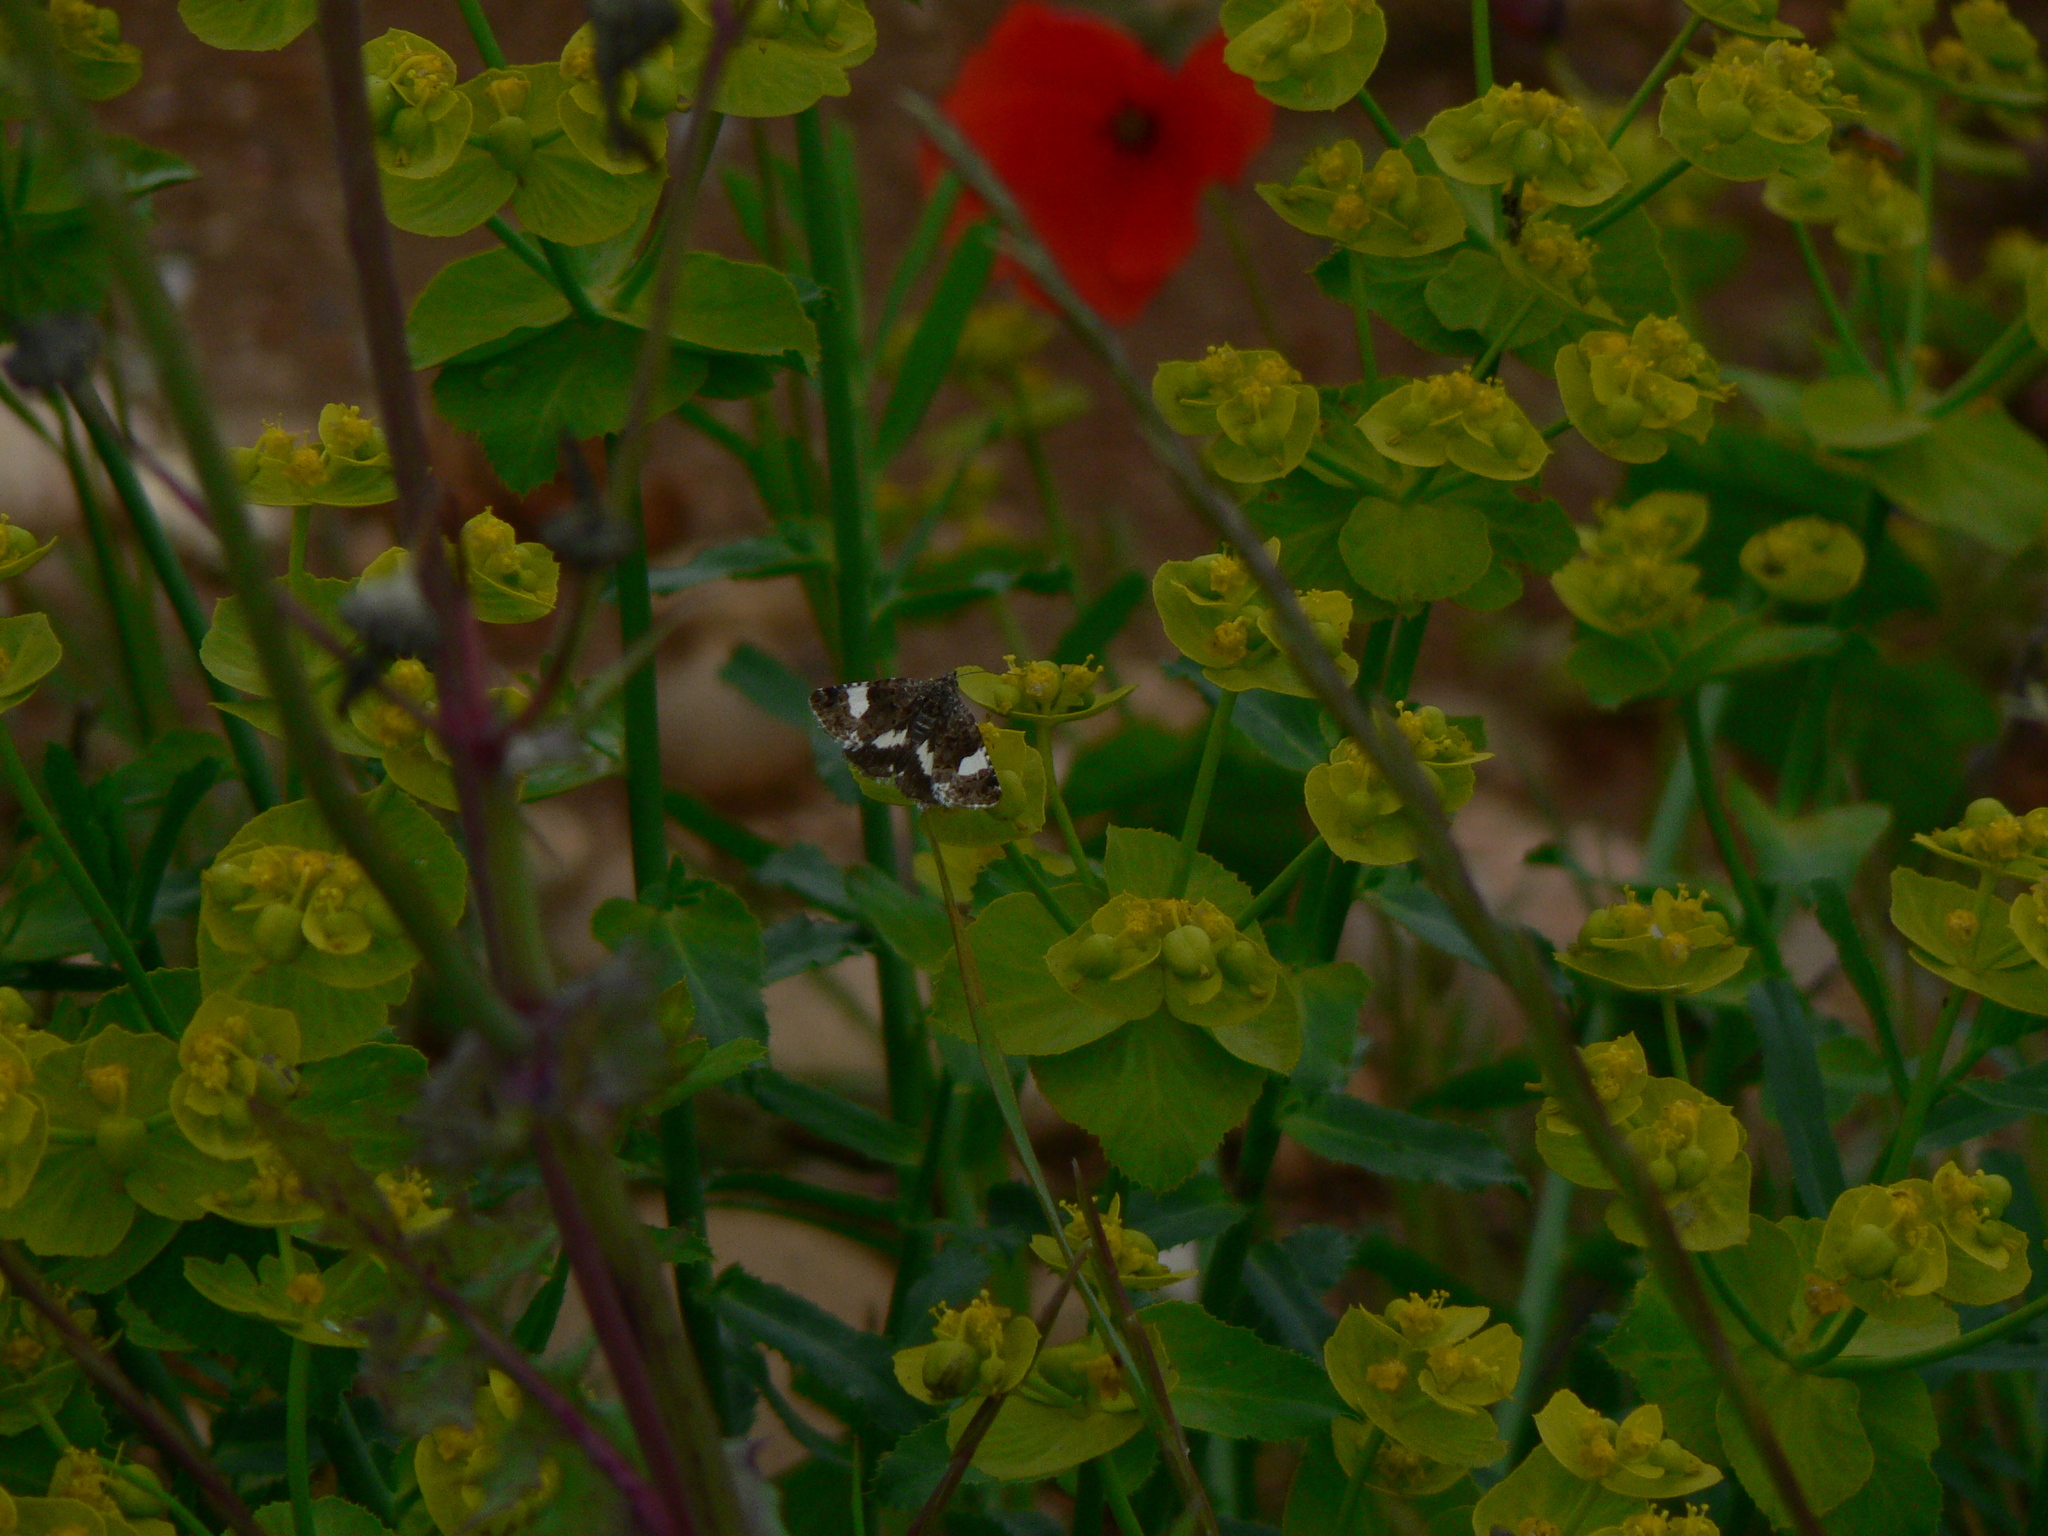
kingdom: Animalia
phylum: Arthropoda
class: Insecta
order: Lepidoptera
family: Erebidae
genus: Tyta
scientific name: Tyta luctuosa
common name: Four-spotted
